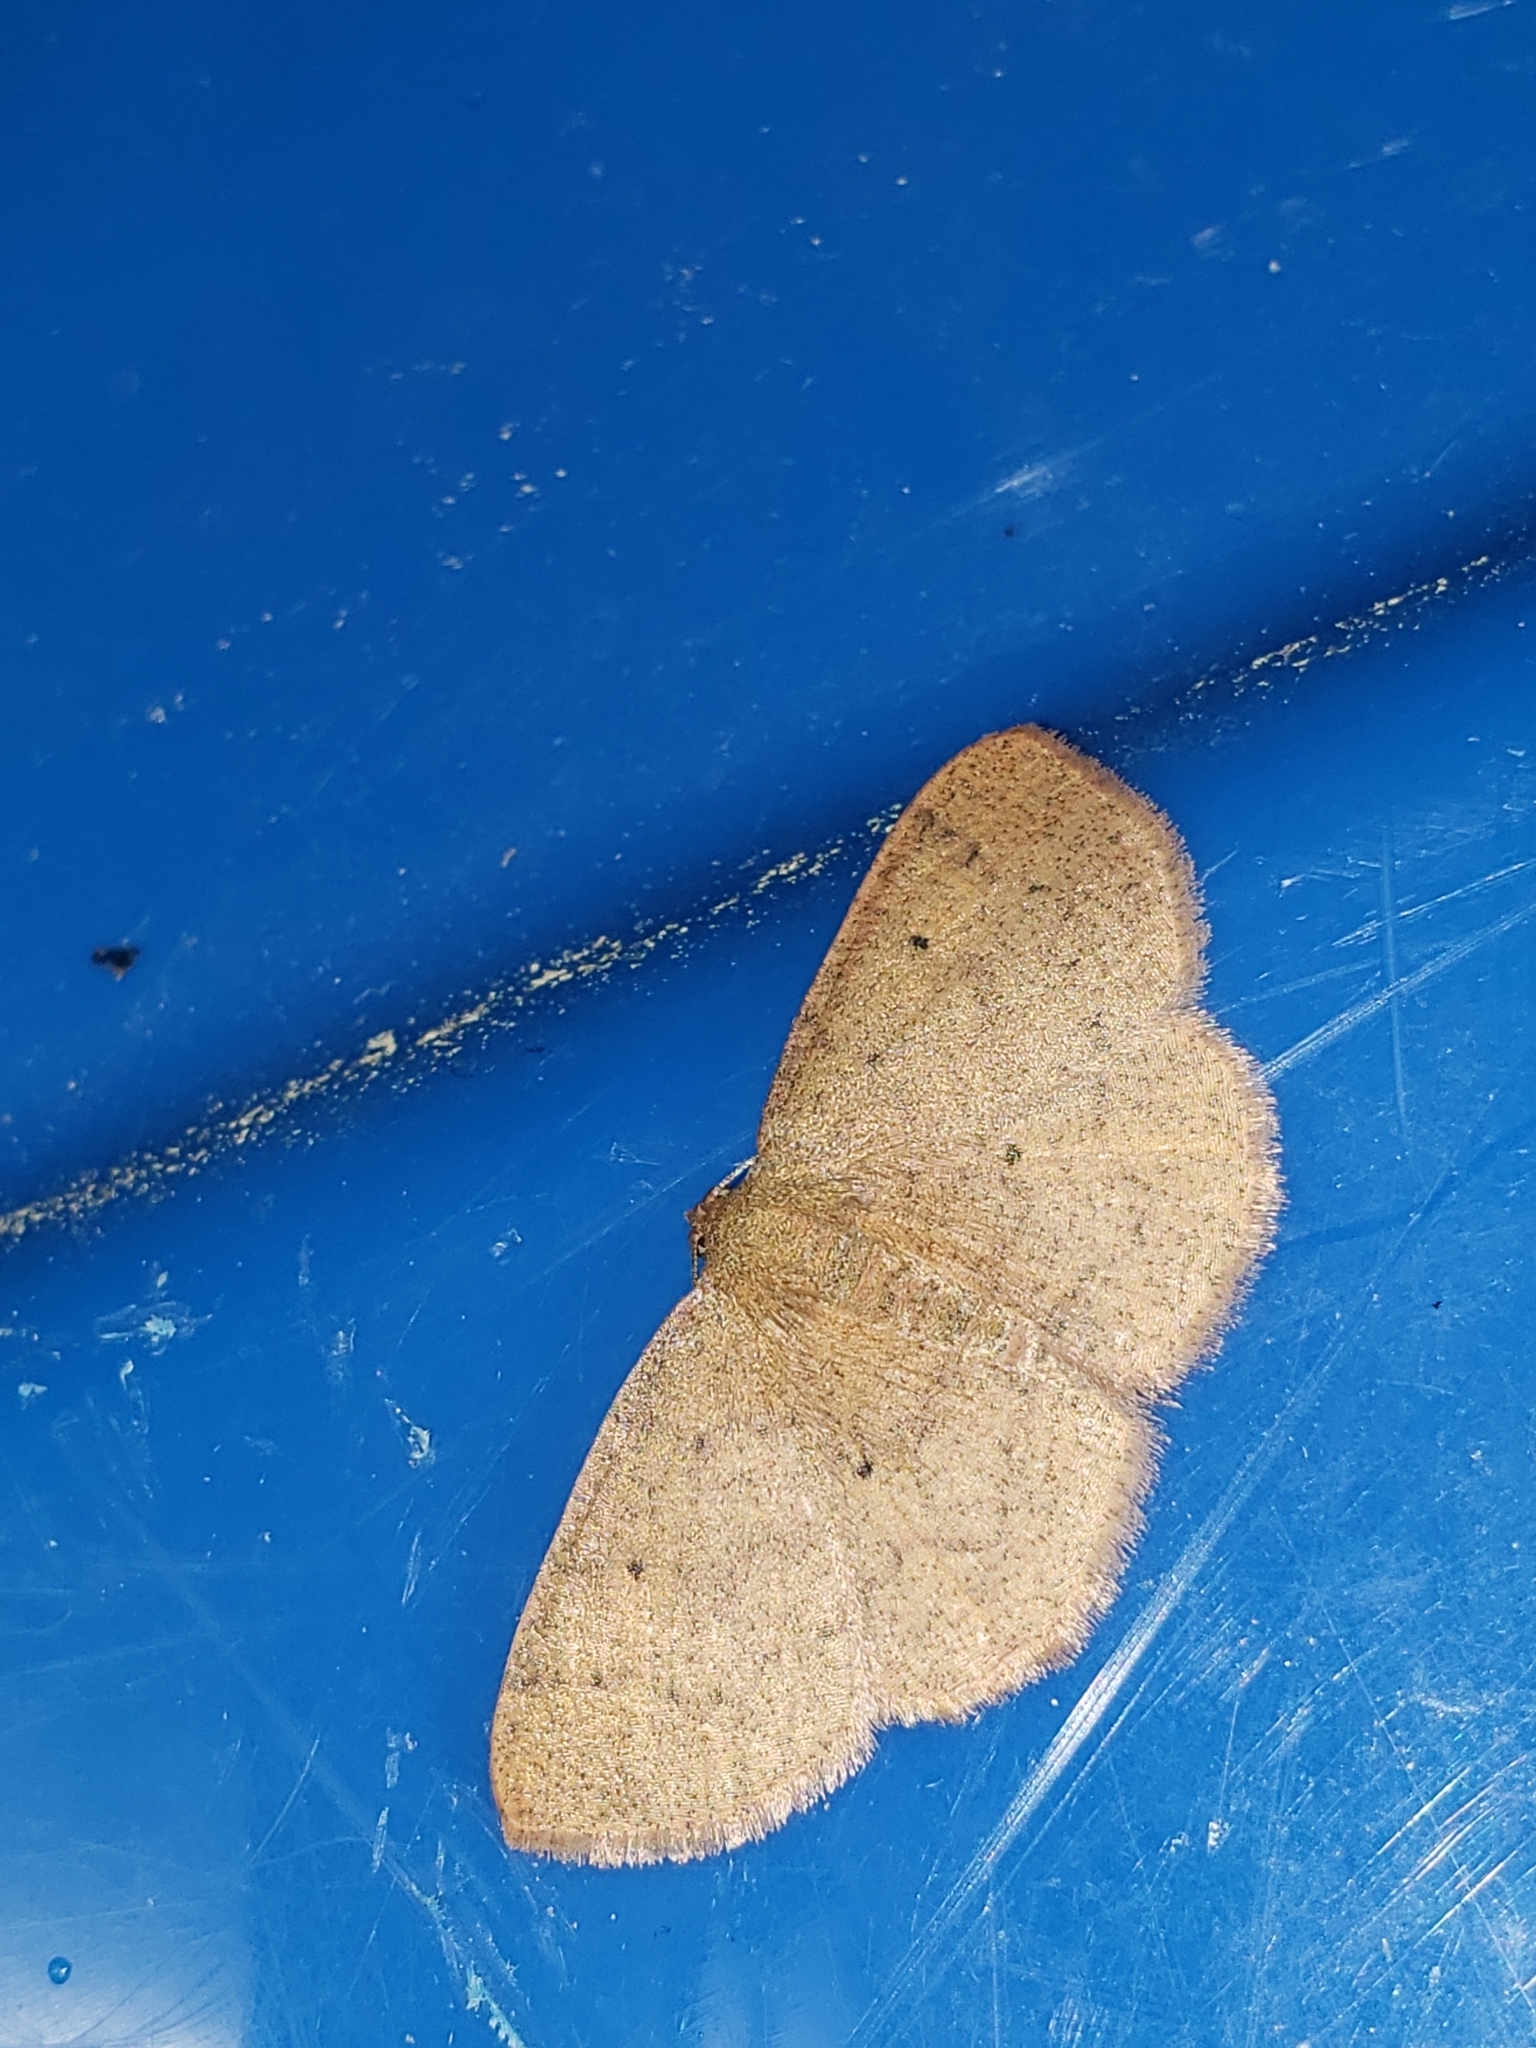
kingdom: Animalia
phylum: Arthropoda
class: Insecta
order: Lepidoptera
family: Geometridae
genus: Ilexia
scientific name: Ilexia intractata
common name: Black-dotted ruddy moth
